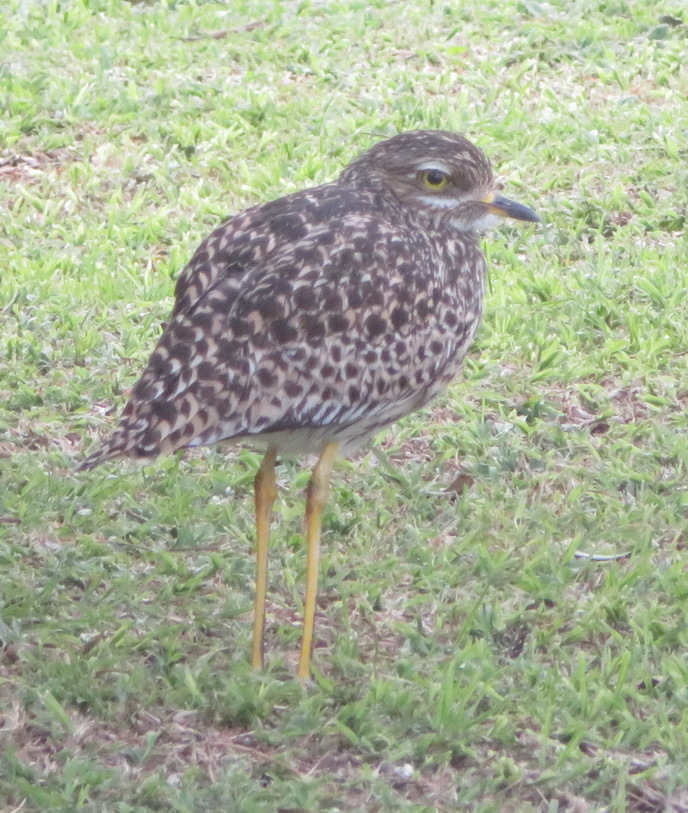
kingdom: Animalia
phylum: Chordata
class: Aves
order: Charadriiformes
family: Burhinidae
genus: Burhinus
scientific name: Burhinus capensis
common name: Spotted thick-knee
